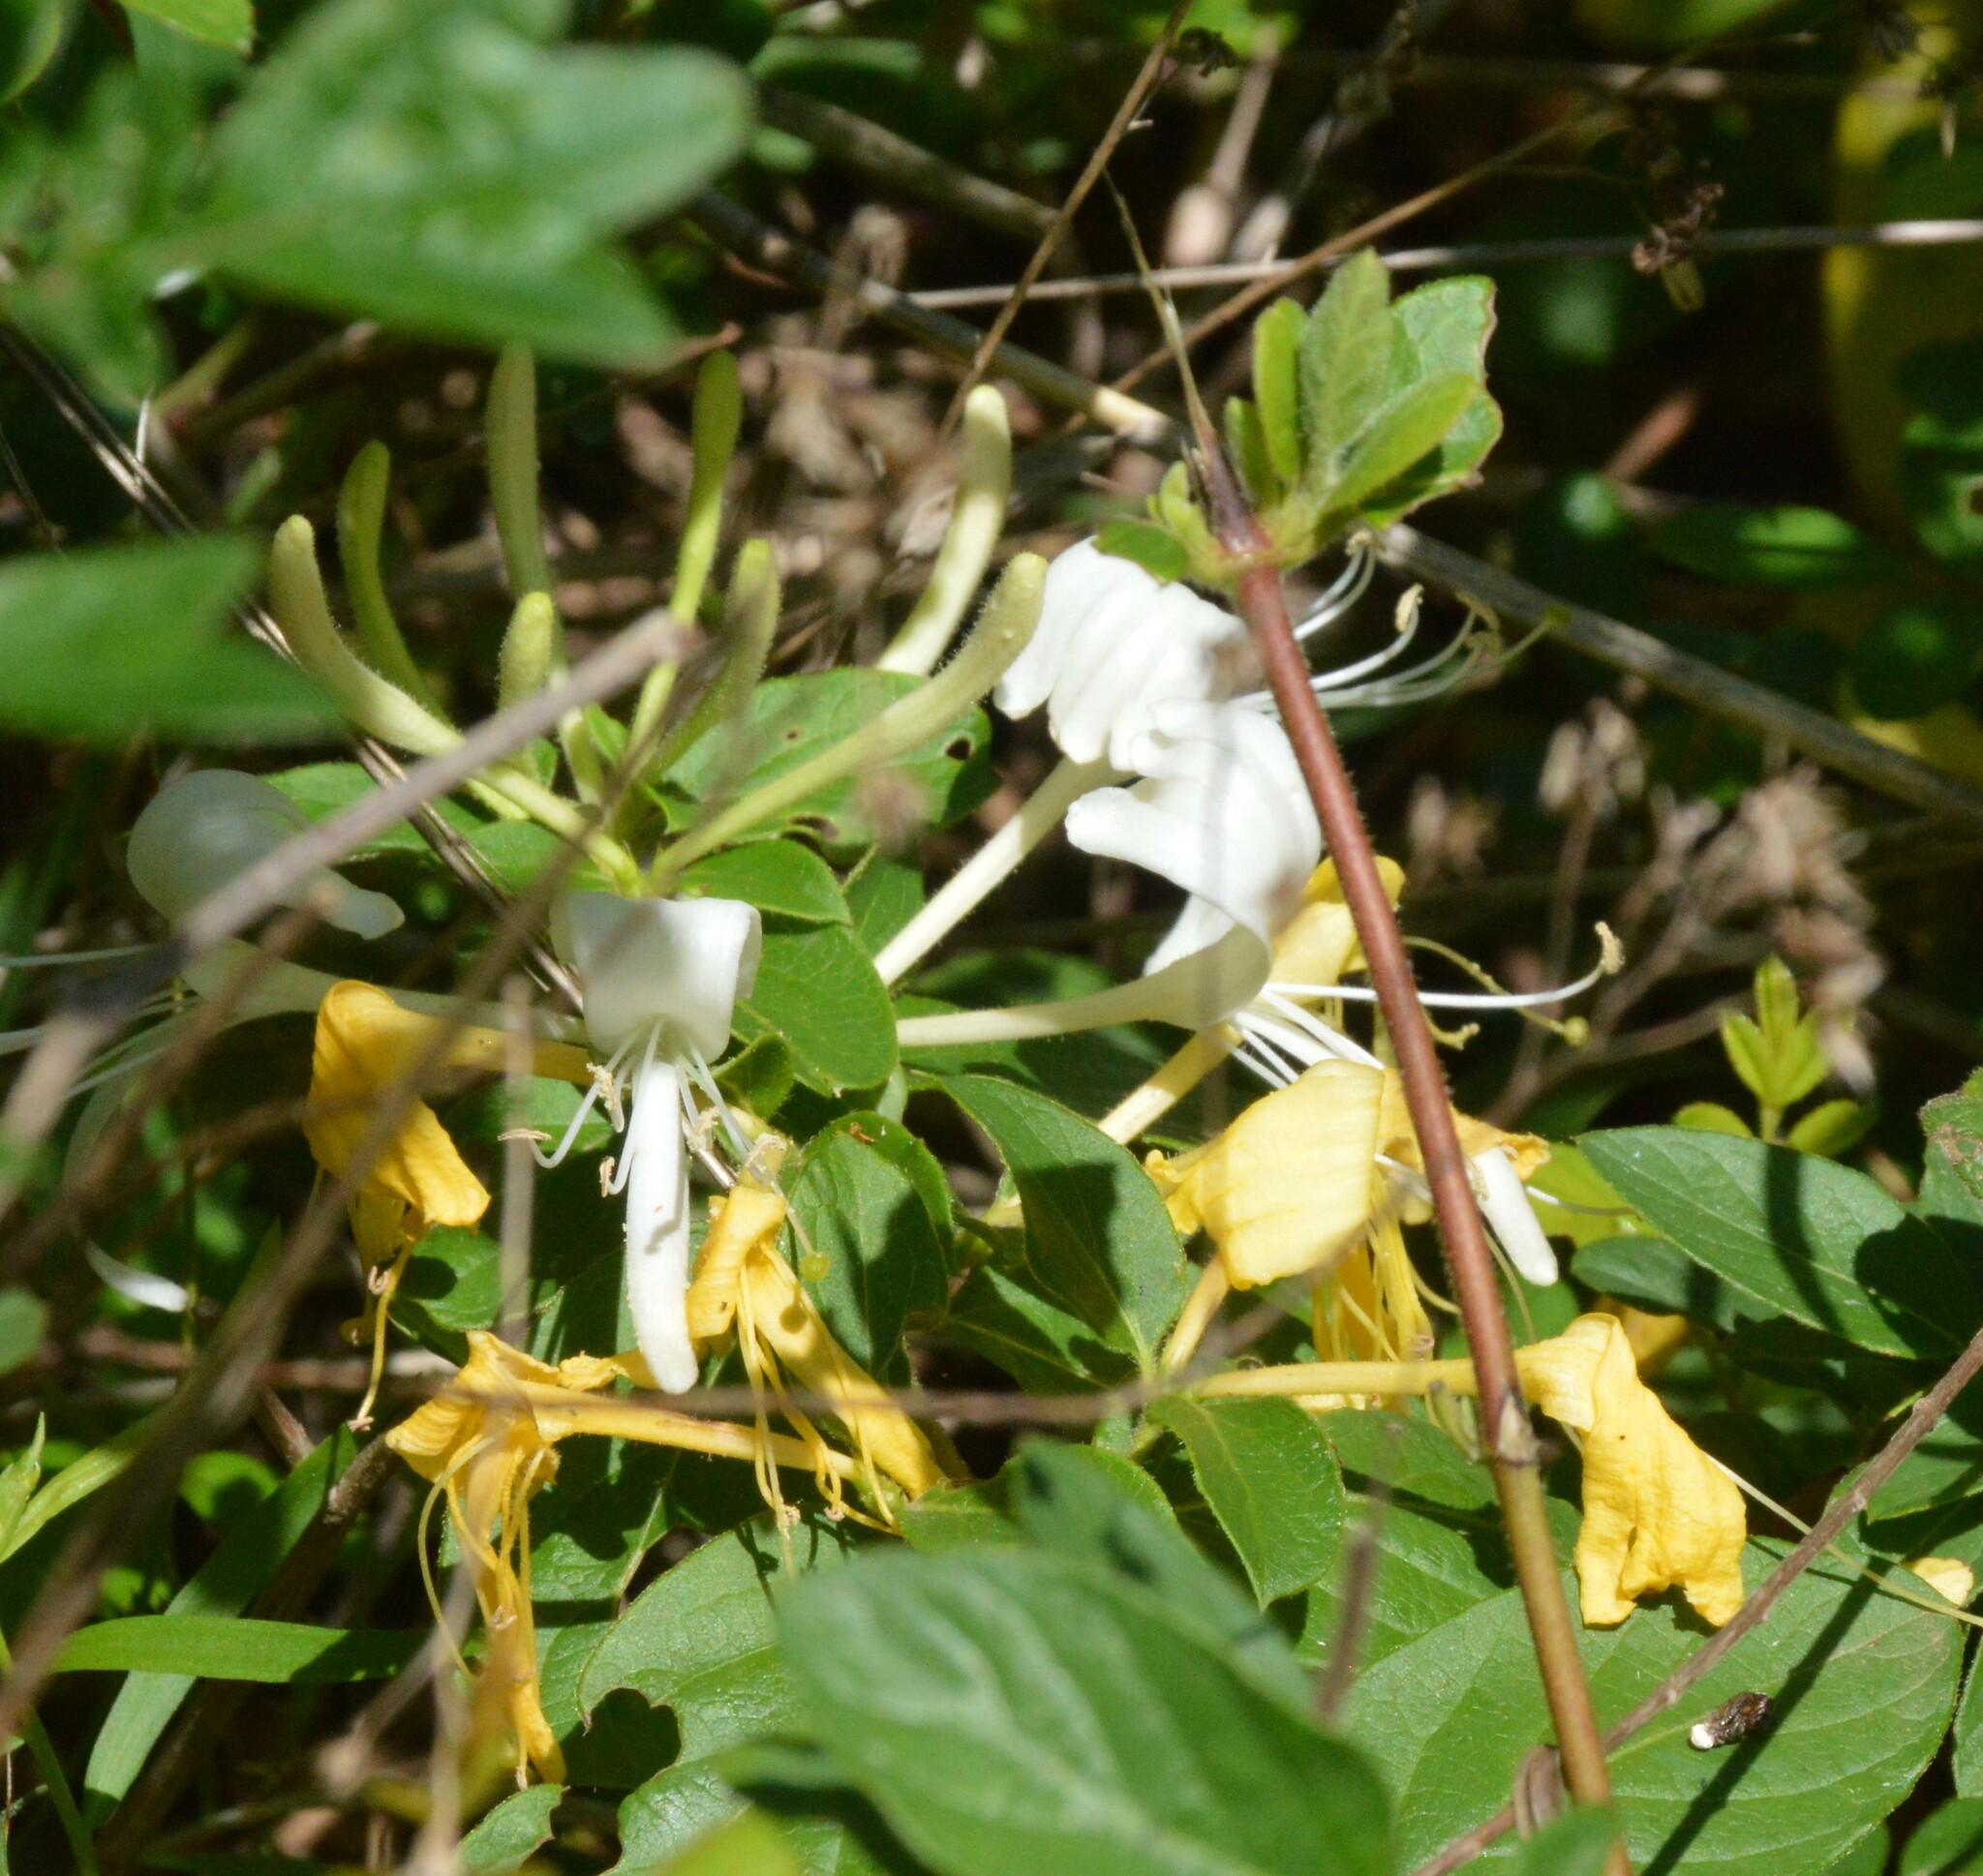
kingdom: Plantae
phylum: Tracheophyta
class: Magnoliopsida
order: Dipsacales
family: Caprifoliaceae
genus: Lonicera
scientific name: Lonicera japonica
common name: Japanese honeysuckle
